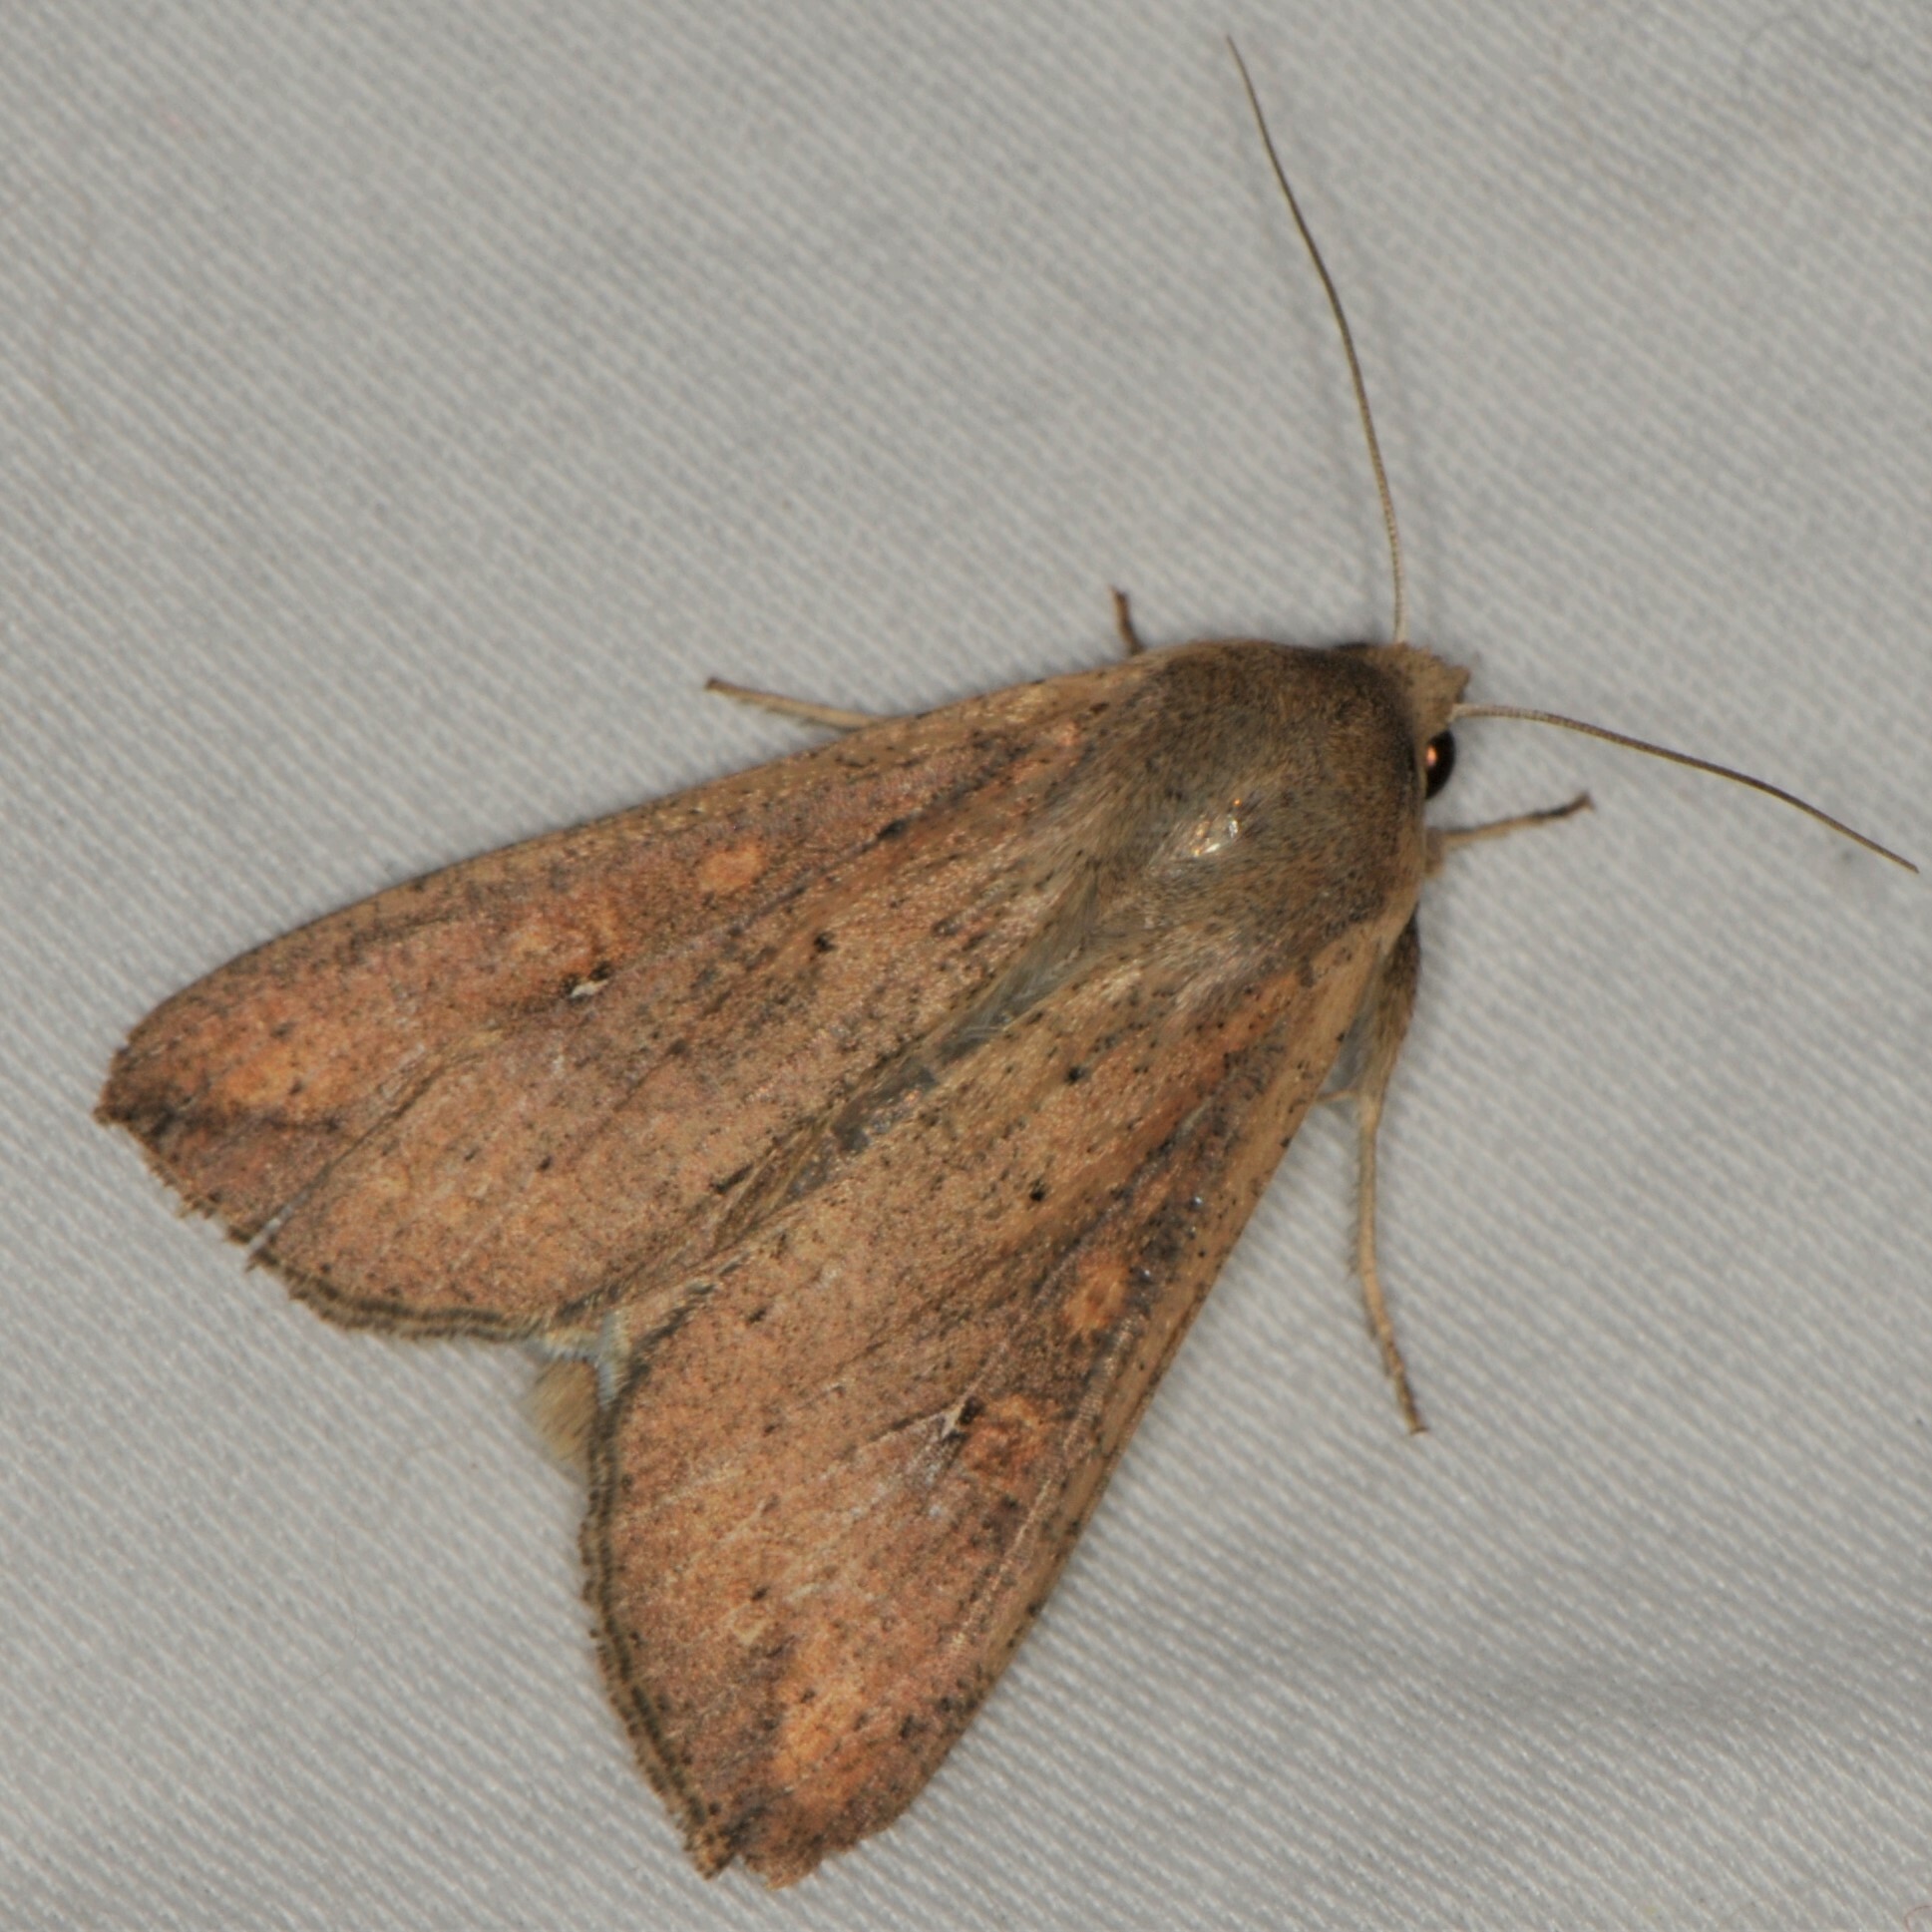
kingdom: Animalia
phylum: Arthropoda
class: Insecta
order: Lepidoptera
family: Noctuidae
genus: Mythimna
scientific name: Mythimna unipuncta
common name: White-speck
